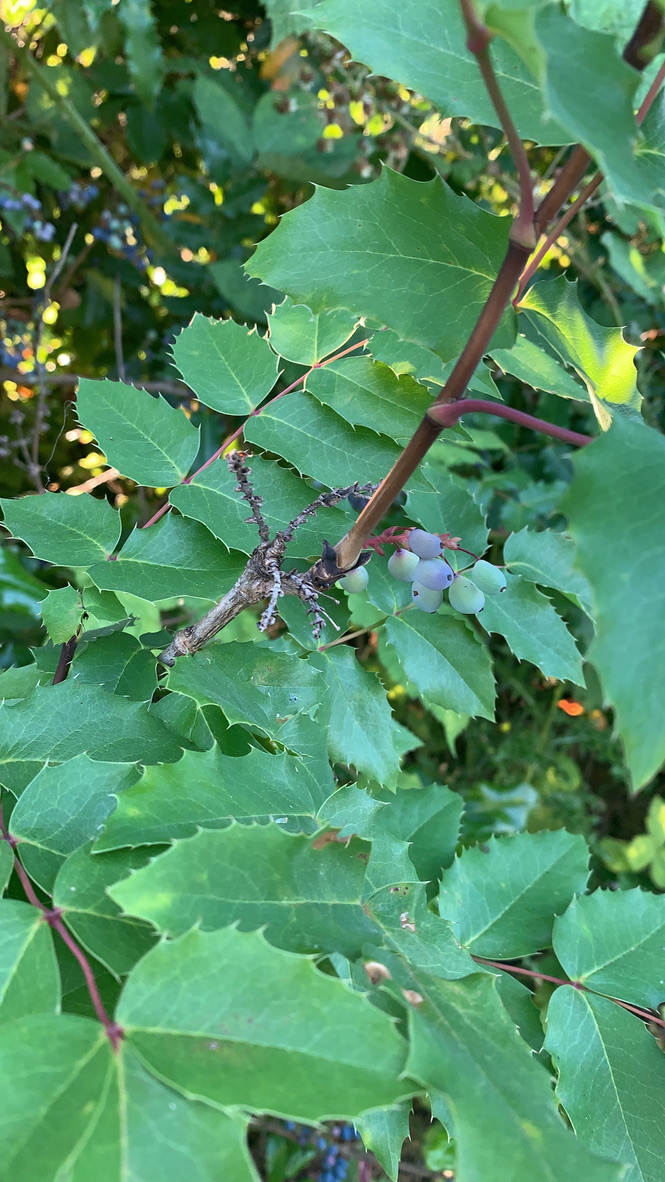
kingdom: Plantae
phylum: Tracheophyta
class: Magnoliopsida
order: Ranunculales
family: Berberidaceae
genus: Mahonia
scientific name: Mahonia aquifolium
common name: Oregon-grape
